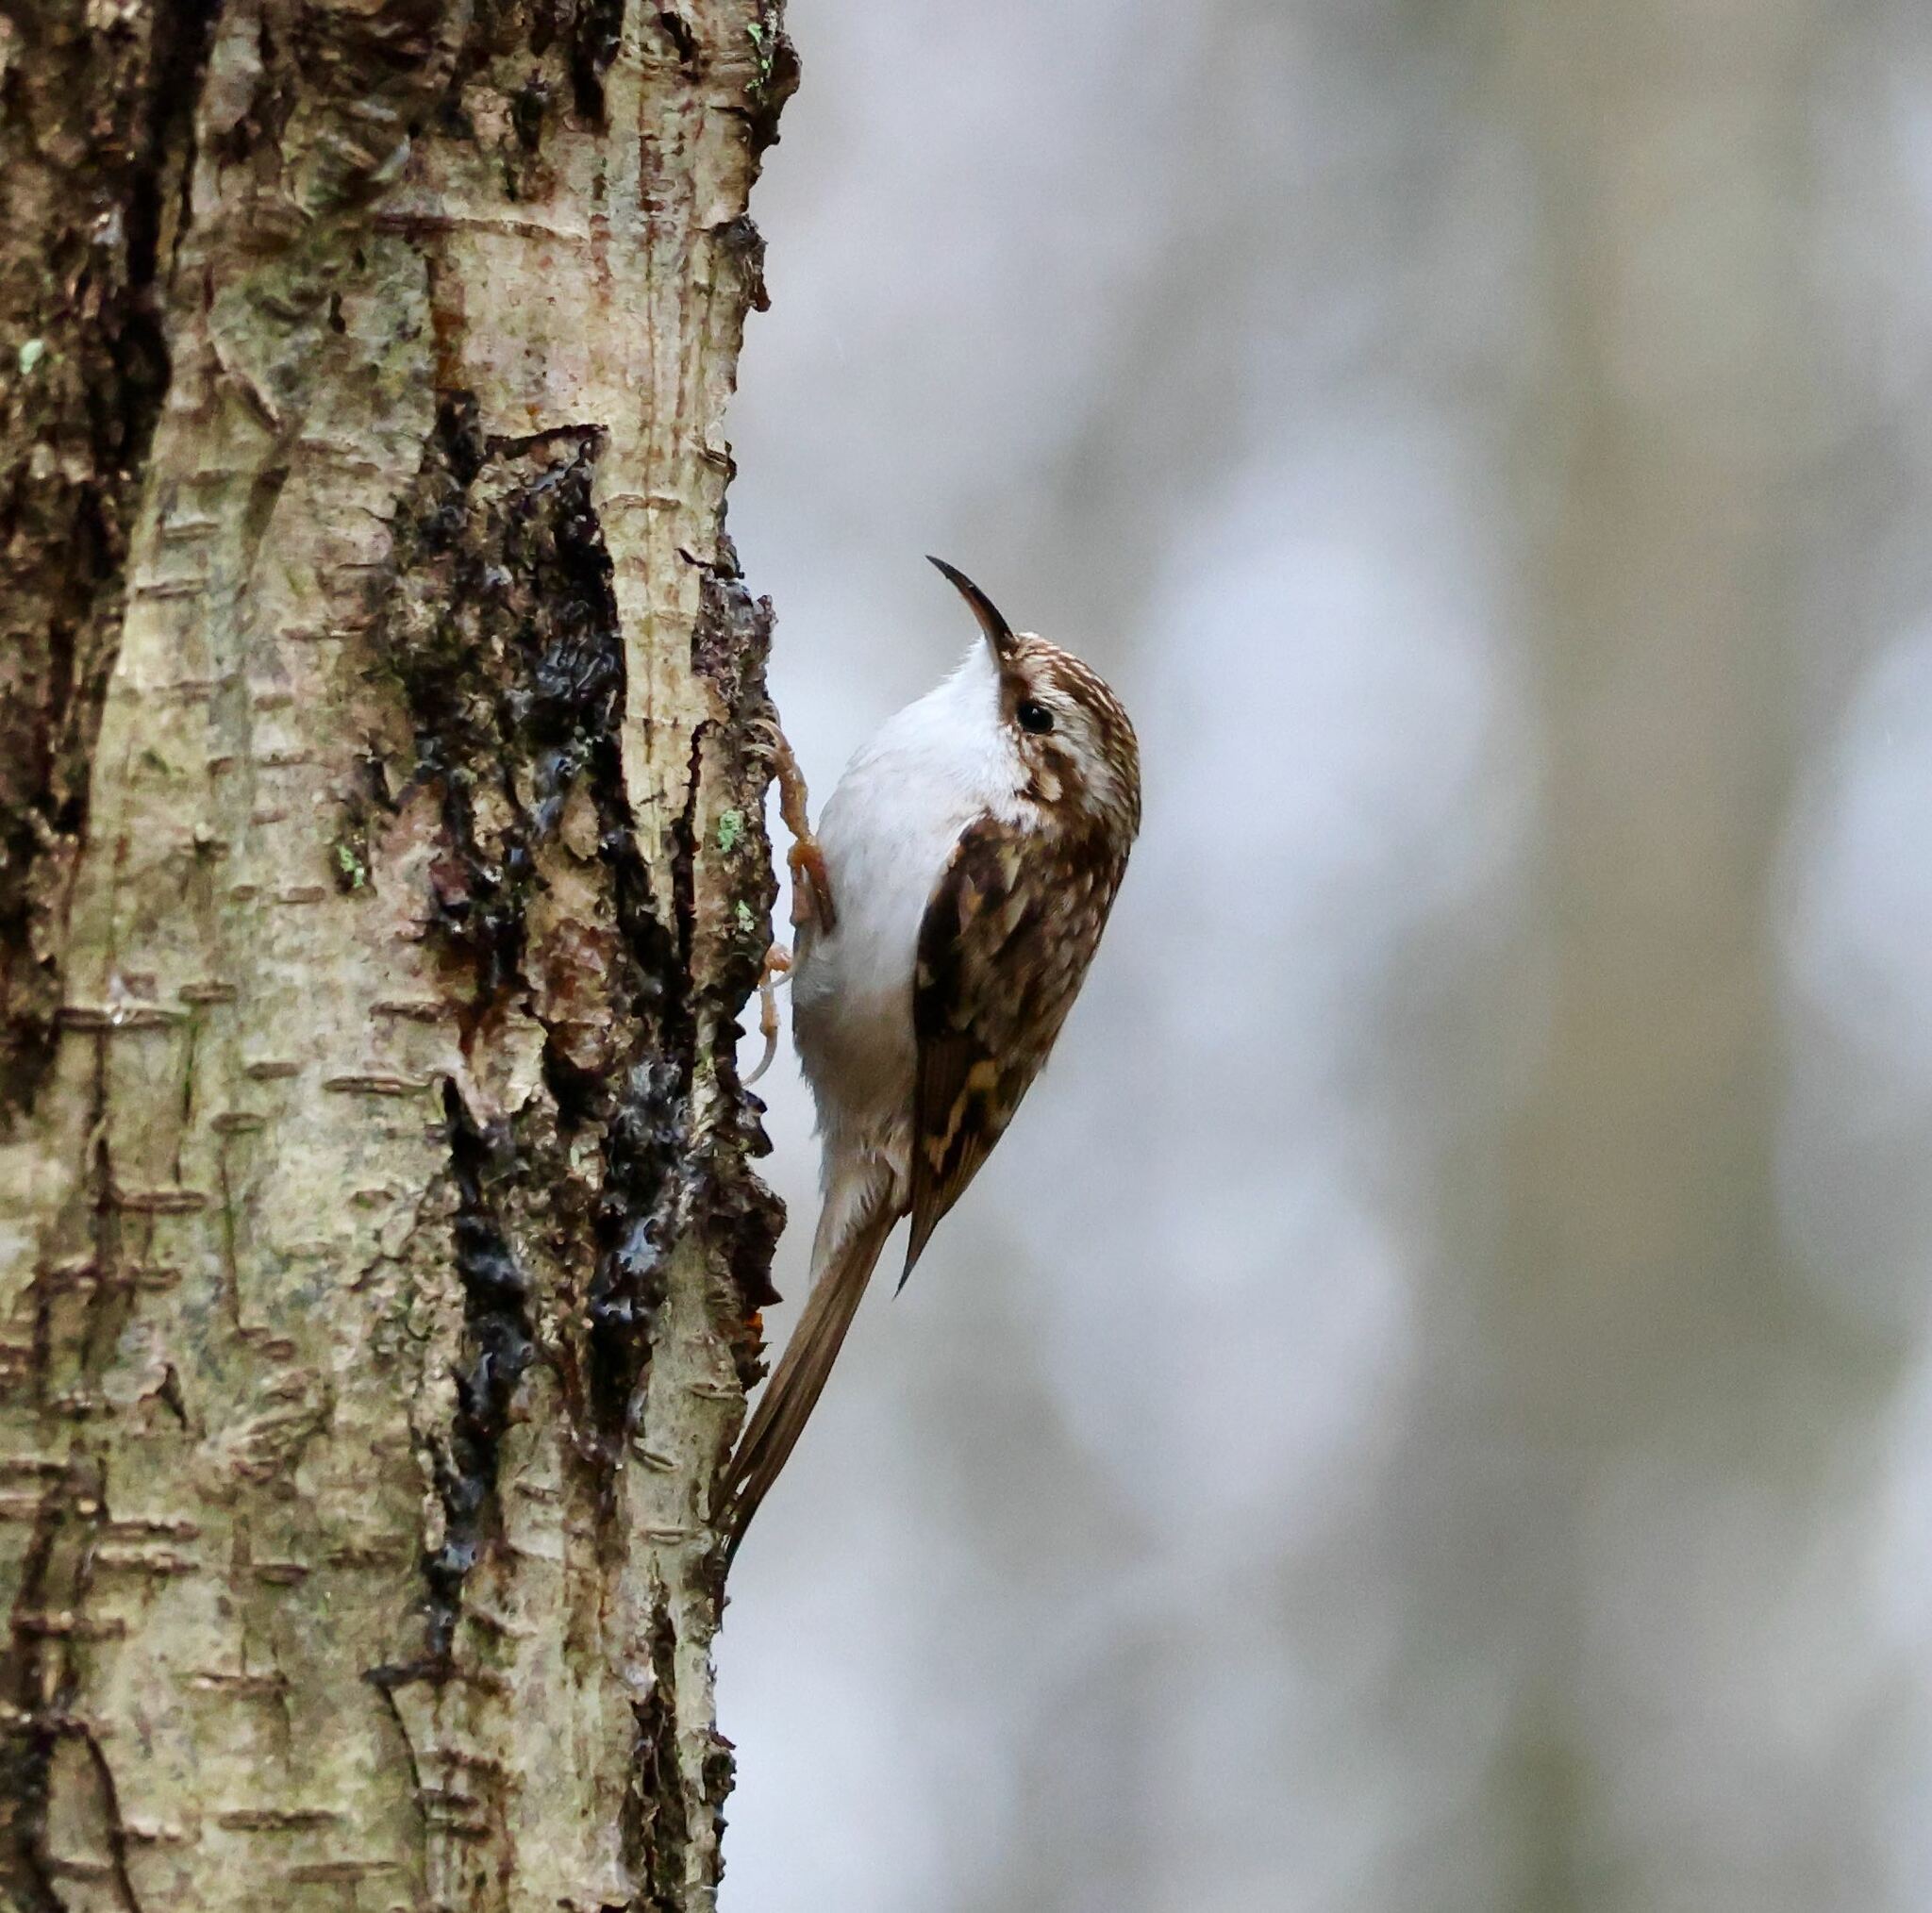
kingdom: Animalia
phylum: Chordata
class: Aves
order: Passeriformes
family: Certhiidae
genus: Certhia
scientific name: Certhia familiaris
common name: Eurasian treecreeper
